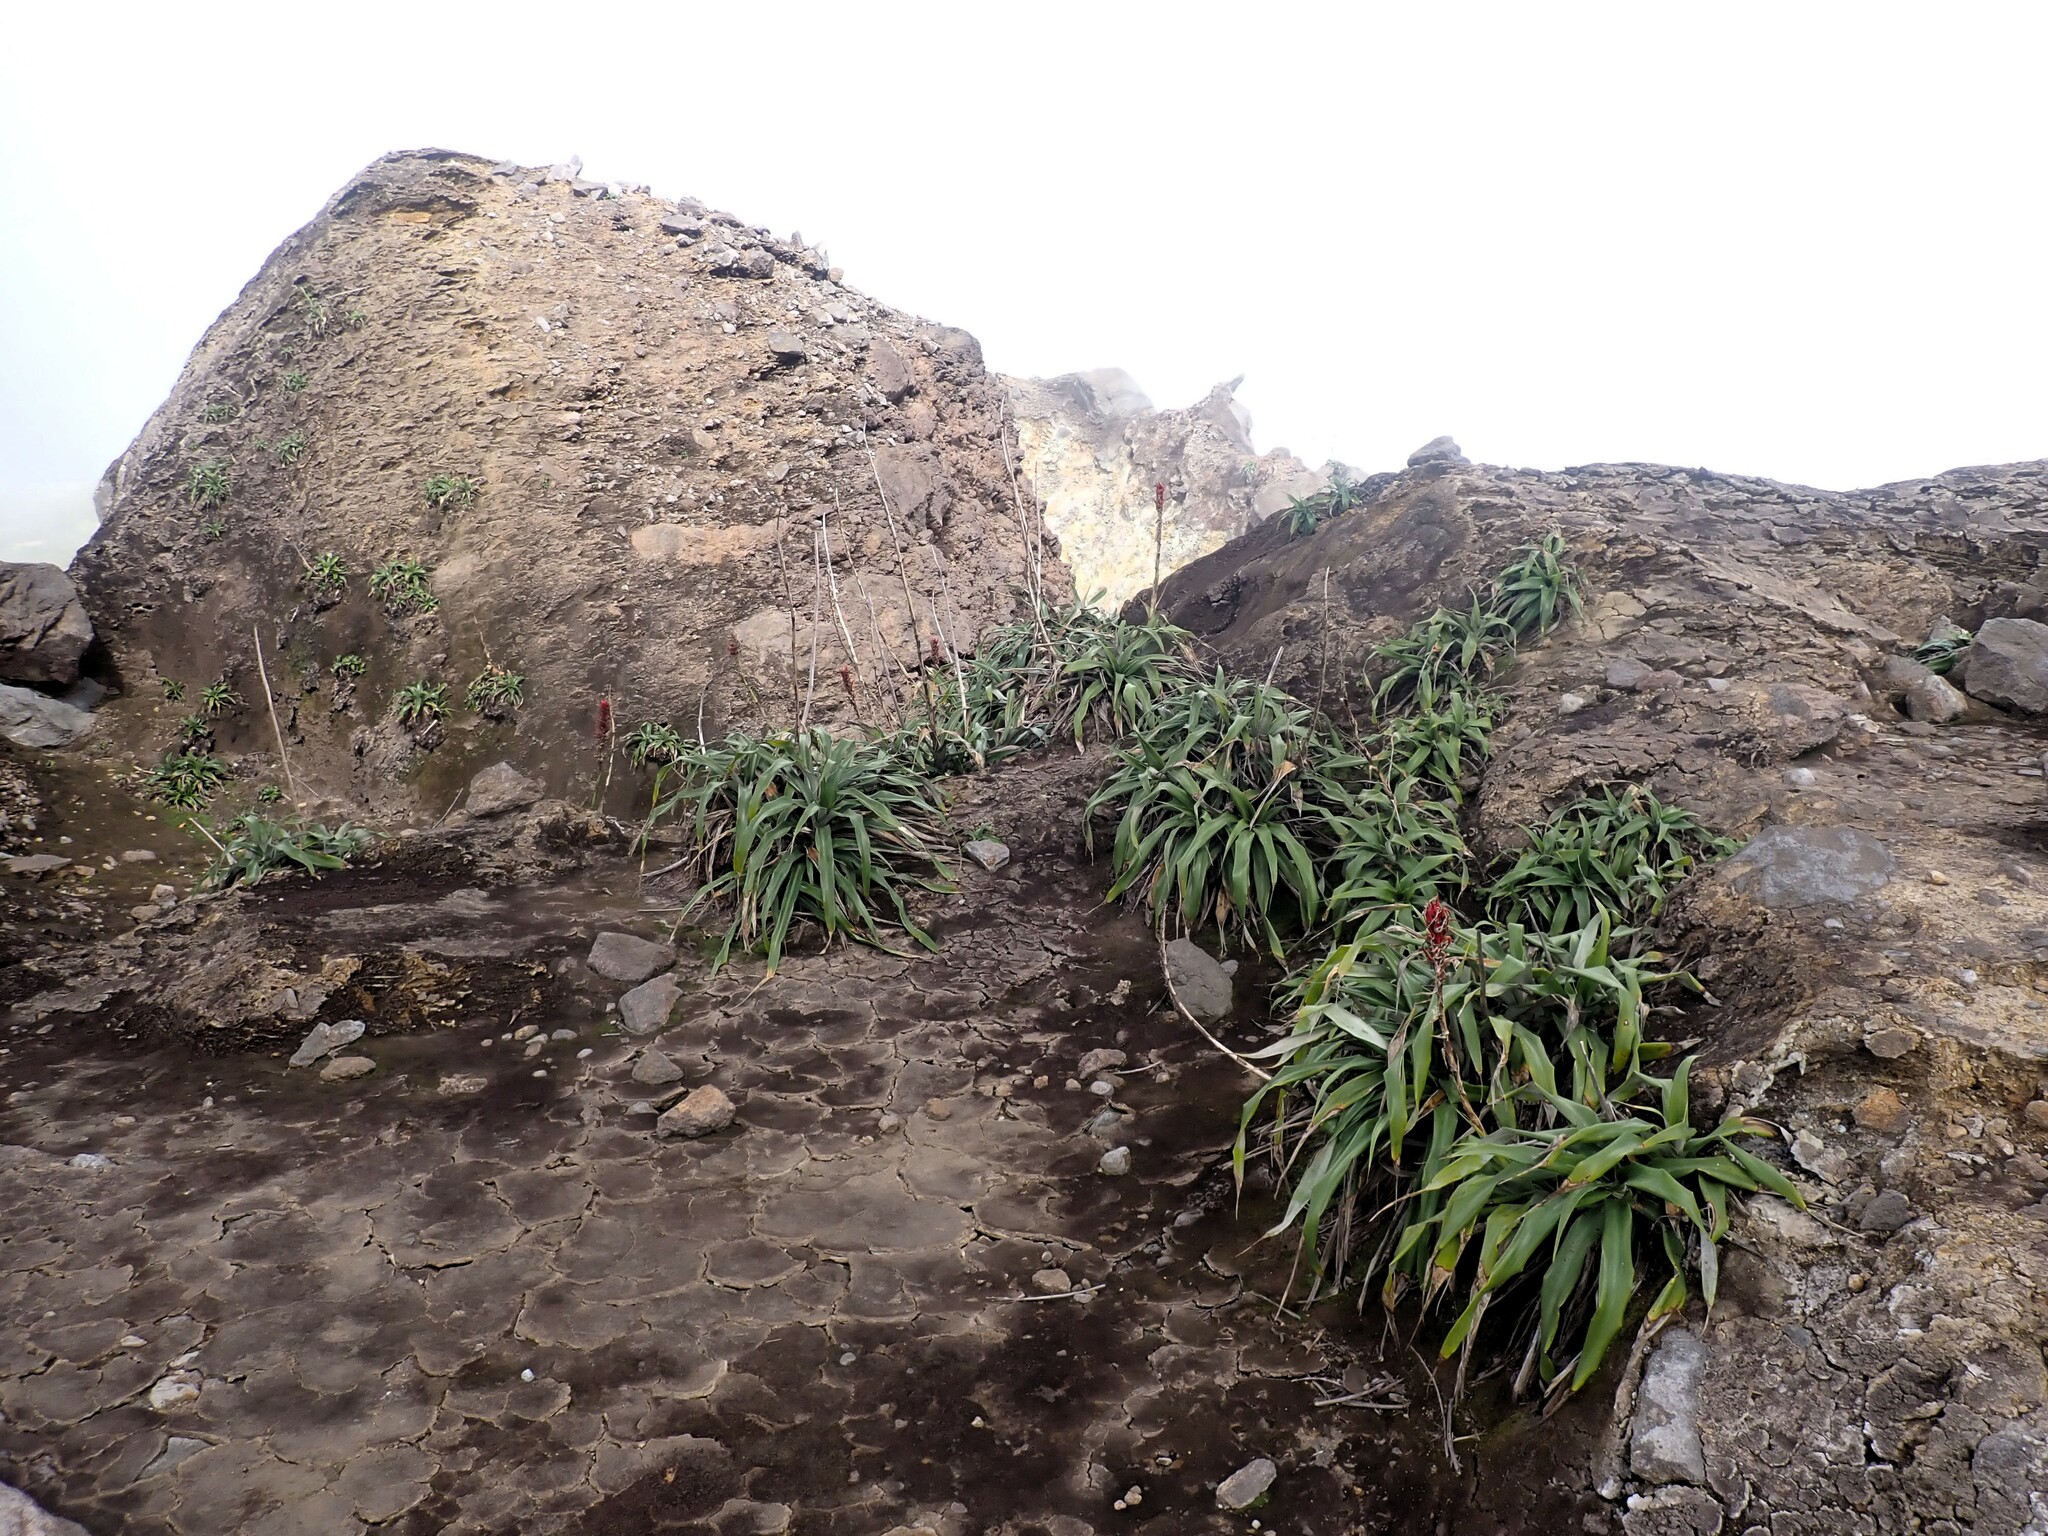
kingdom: Plantae
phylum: Tracheophyta
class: Liliopsida
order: Poales
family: Bromeliaceae
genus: Pitcairnia
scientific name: Pitcairnia bifrons
